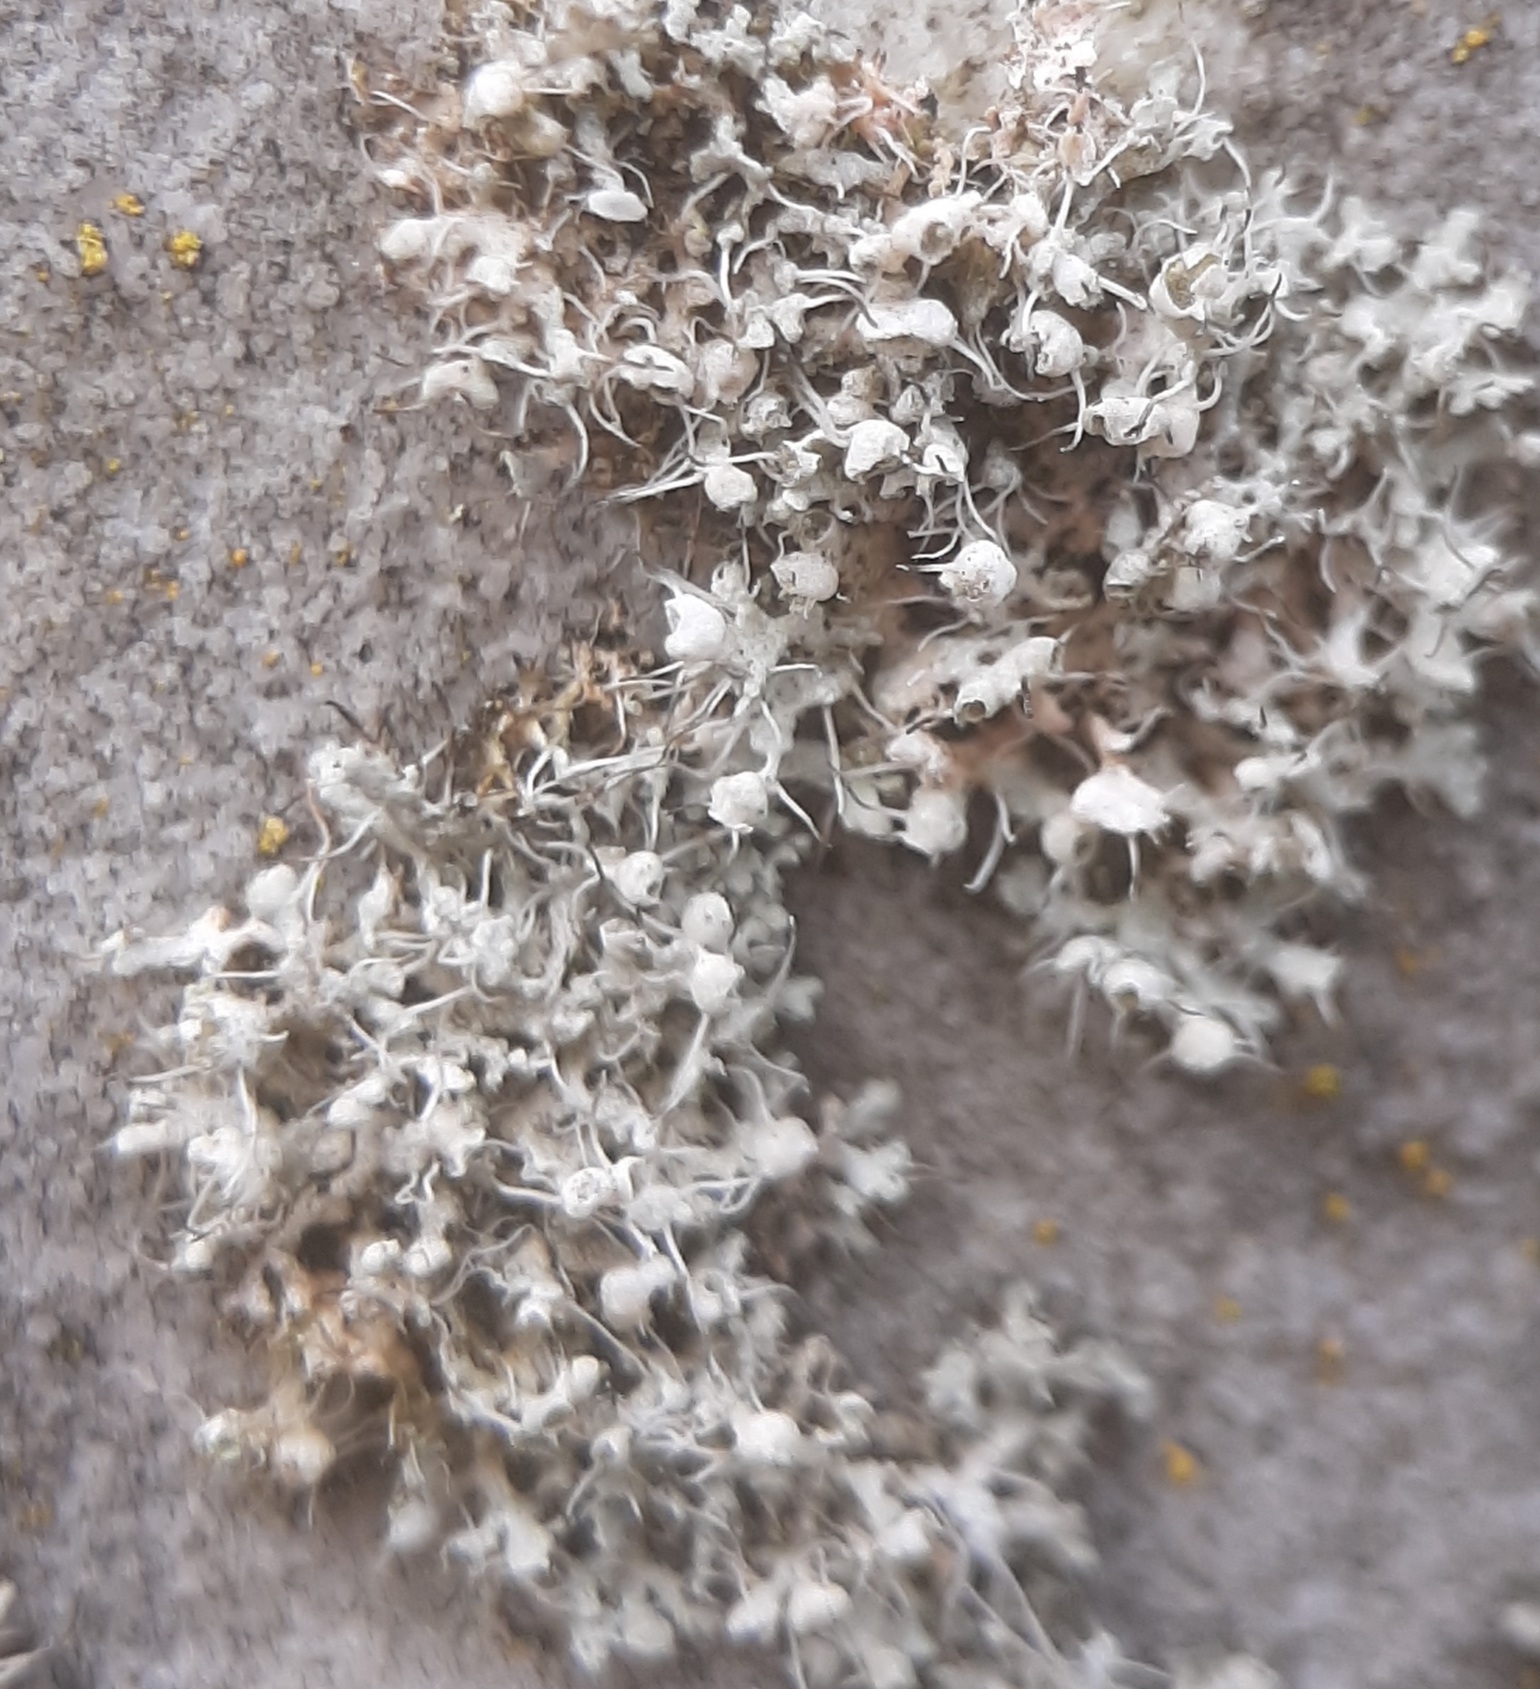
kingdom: Fungi
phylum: Ascomycota
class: Lecanoromycetes
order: Caliciales
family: Physciaceae
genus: Physcia
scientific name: Physcia adscendens
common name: Hooded rosette lichen
